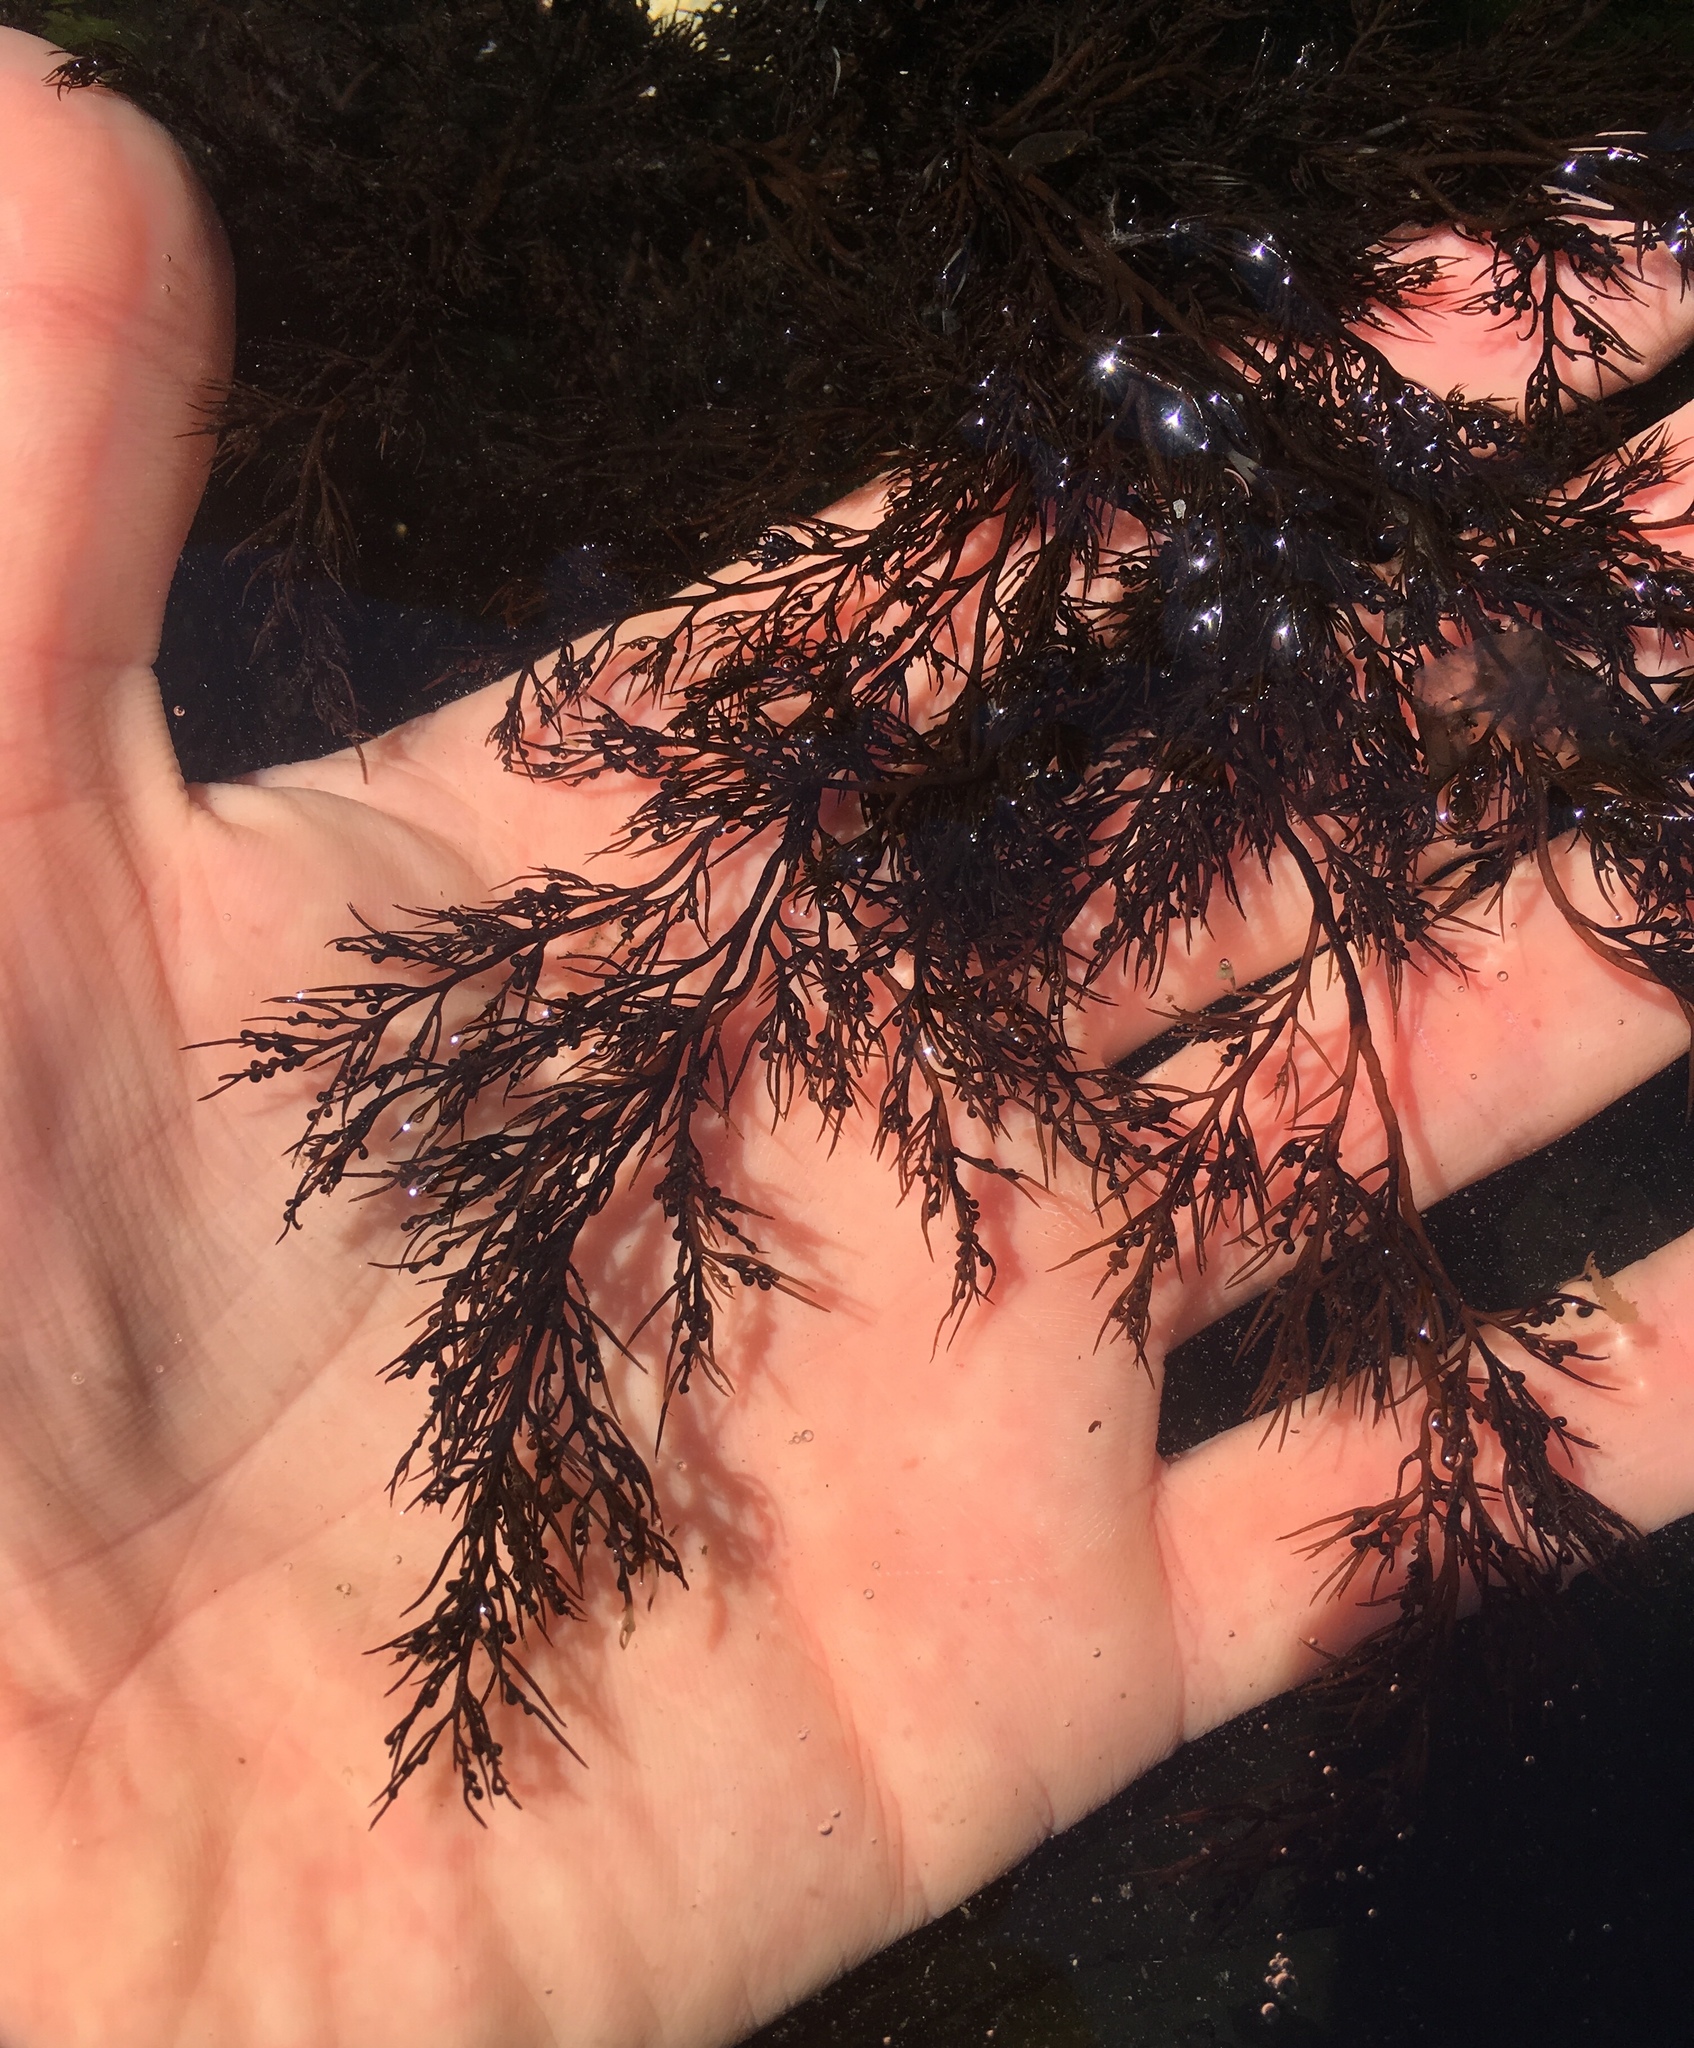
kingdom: Plantae
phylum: Rhodophyta
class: Florideophyceae
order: Ceramiales
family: Rhodomelaceae
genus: Odonthalia
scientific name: Odonthalia floccosa
